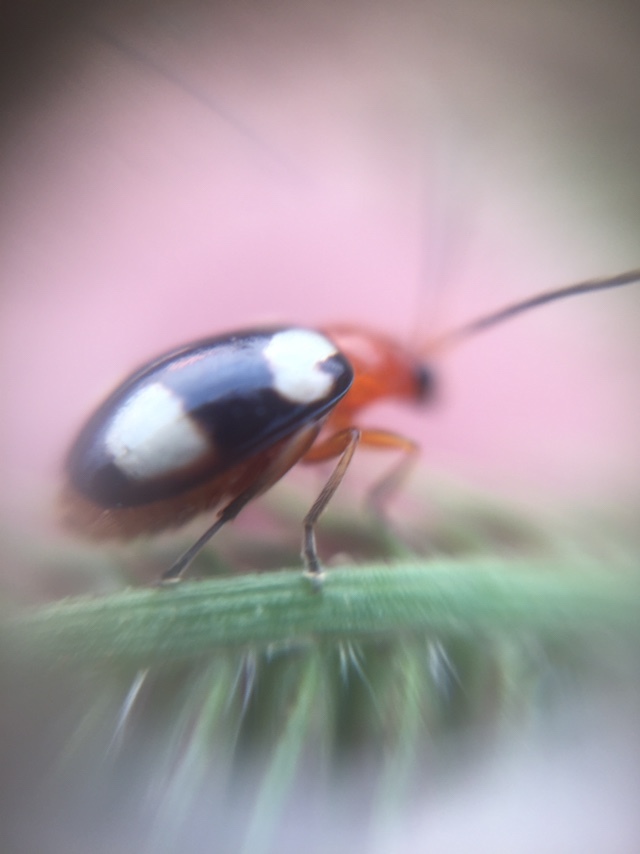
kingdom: Animalia
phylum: Arthropoda
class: Insecta
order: Coleoptera
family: Chrysomelidae
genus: Monolepta
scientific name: Monolepta signata
